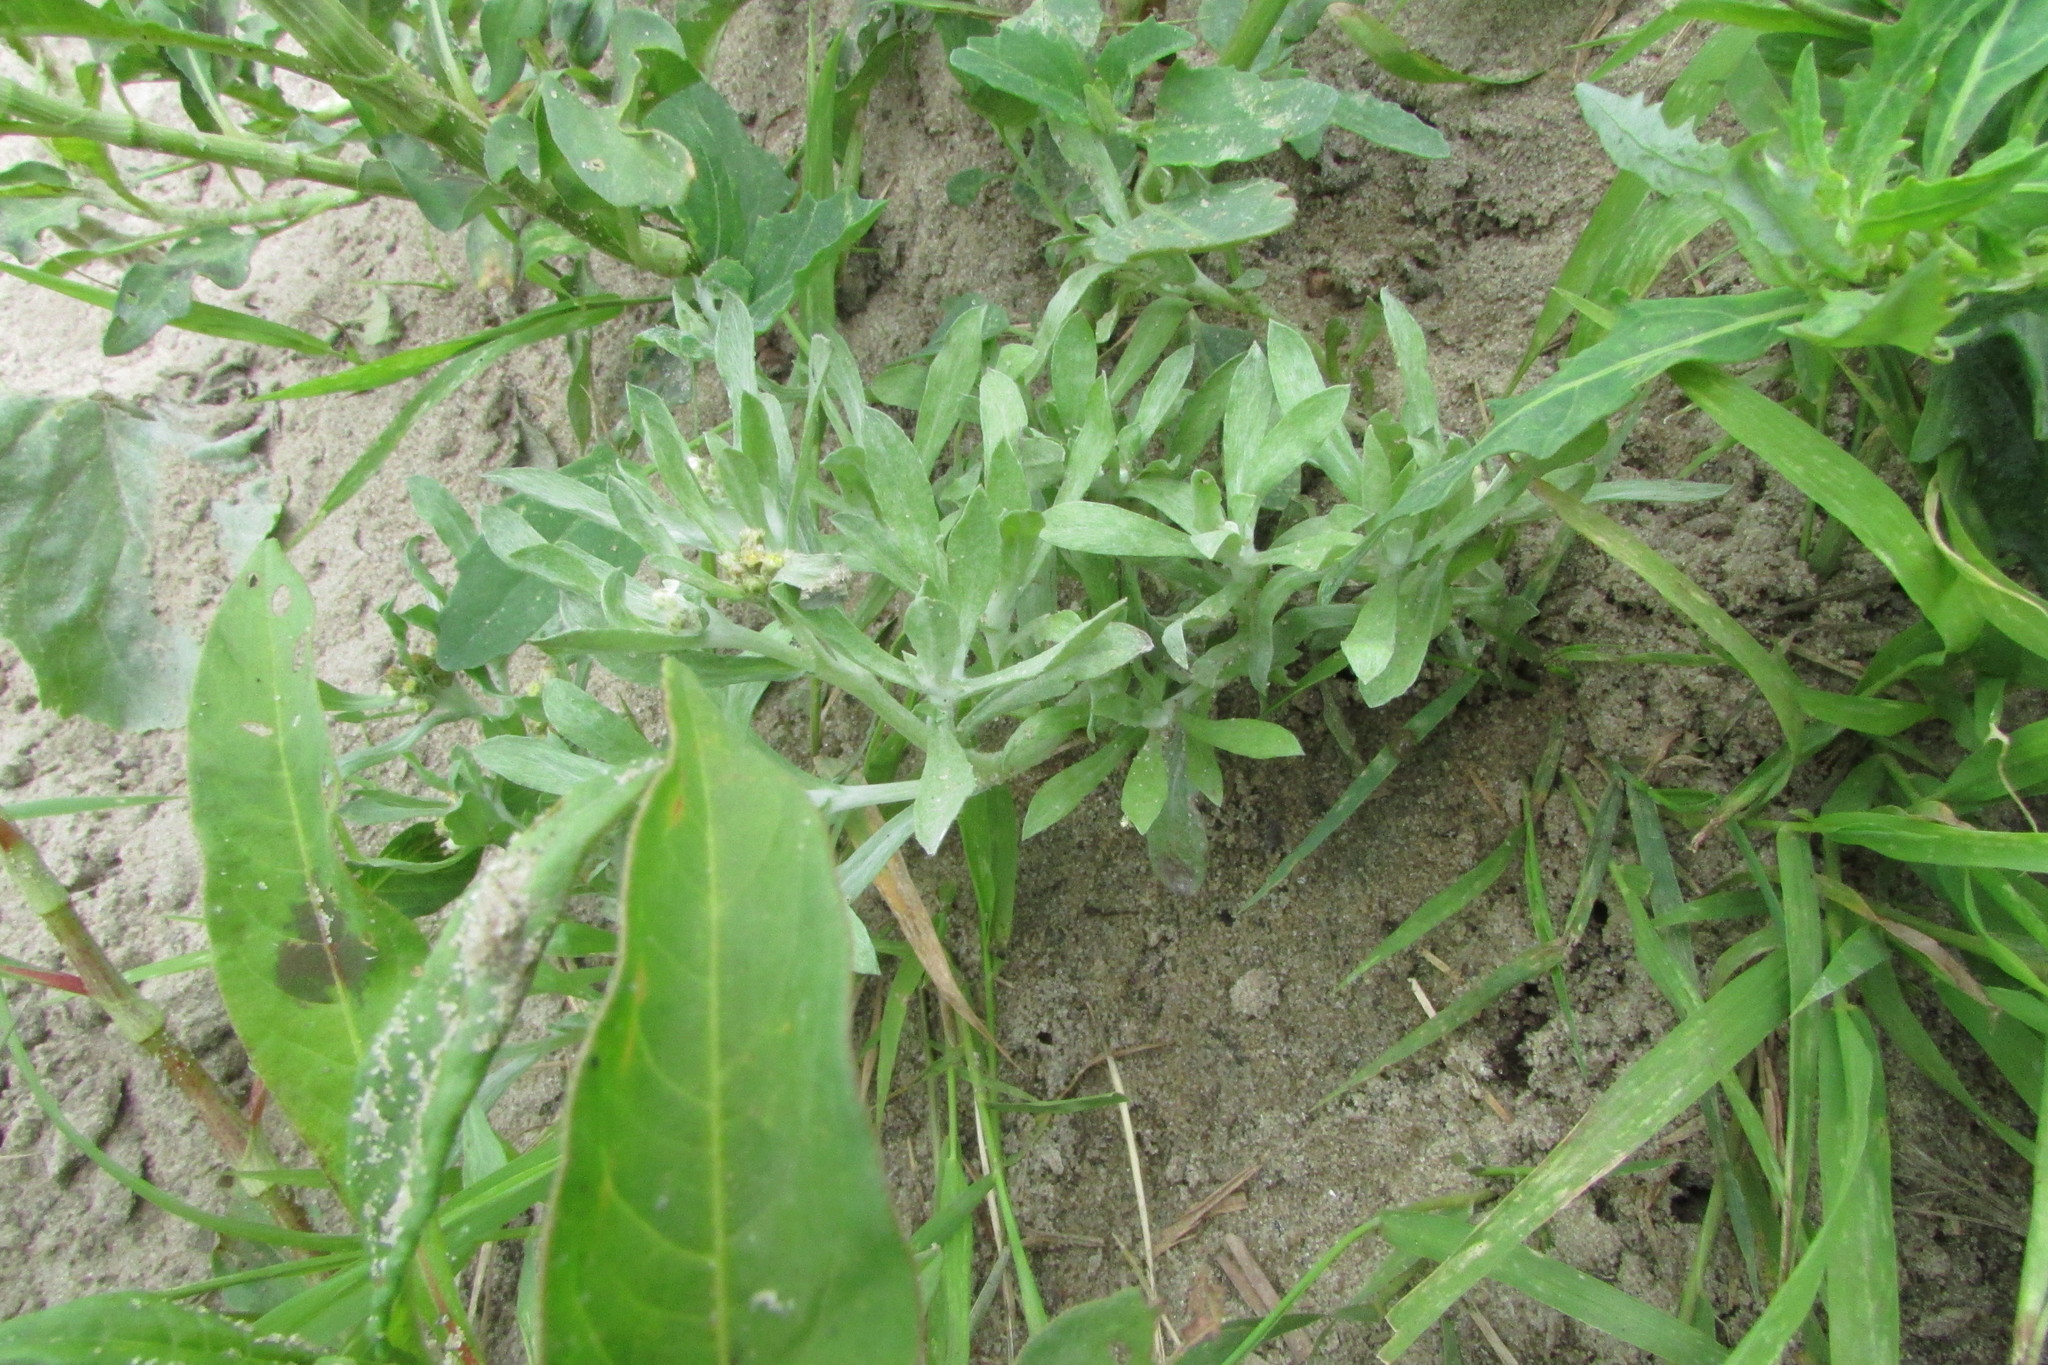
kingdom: Plantae
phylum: Tracheophyta
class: Magnoliopsida
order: Asterales
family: Asteraceae
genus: Gnaphalium
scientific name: Gnaphalium rossicum
